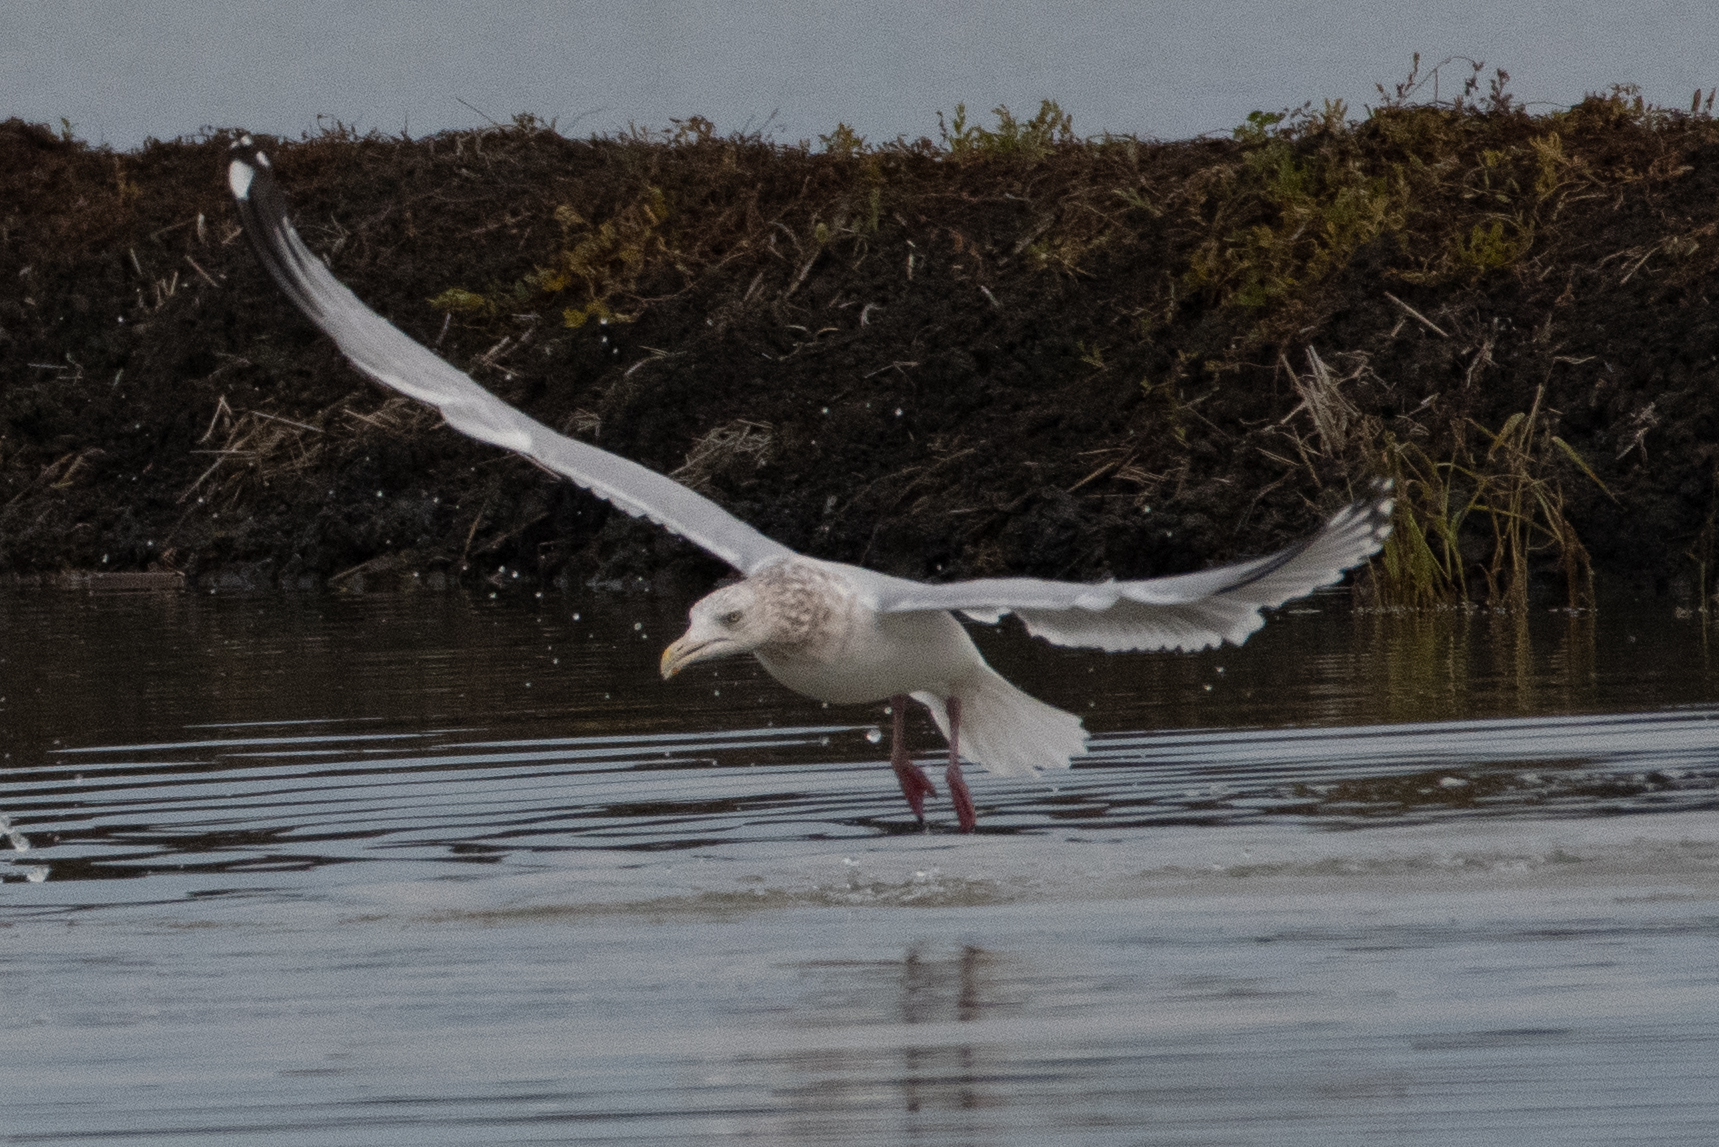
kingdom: Animalia
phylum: Chordata
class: Aves
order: Charadriiformes
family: Laridae
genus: Larus
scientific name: Larus argentatus
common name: Herring gull
